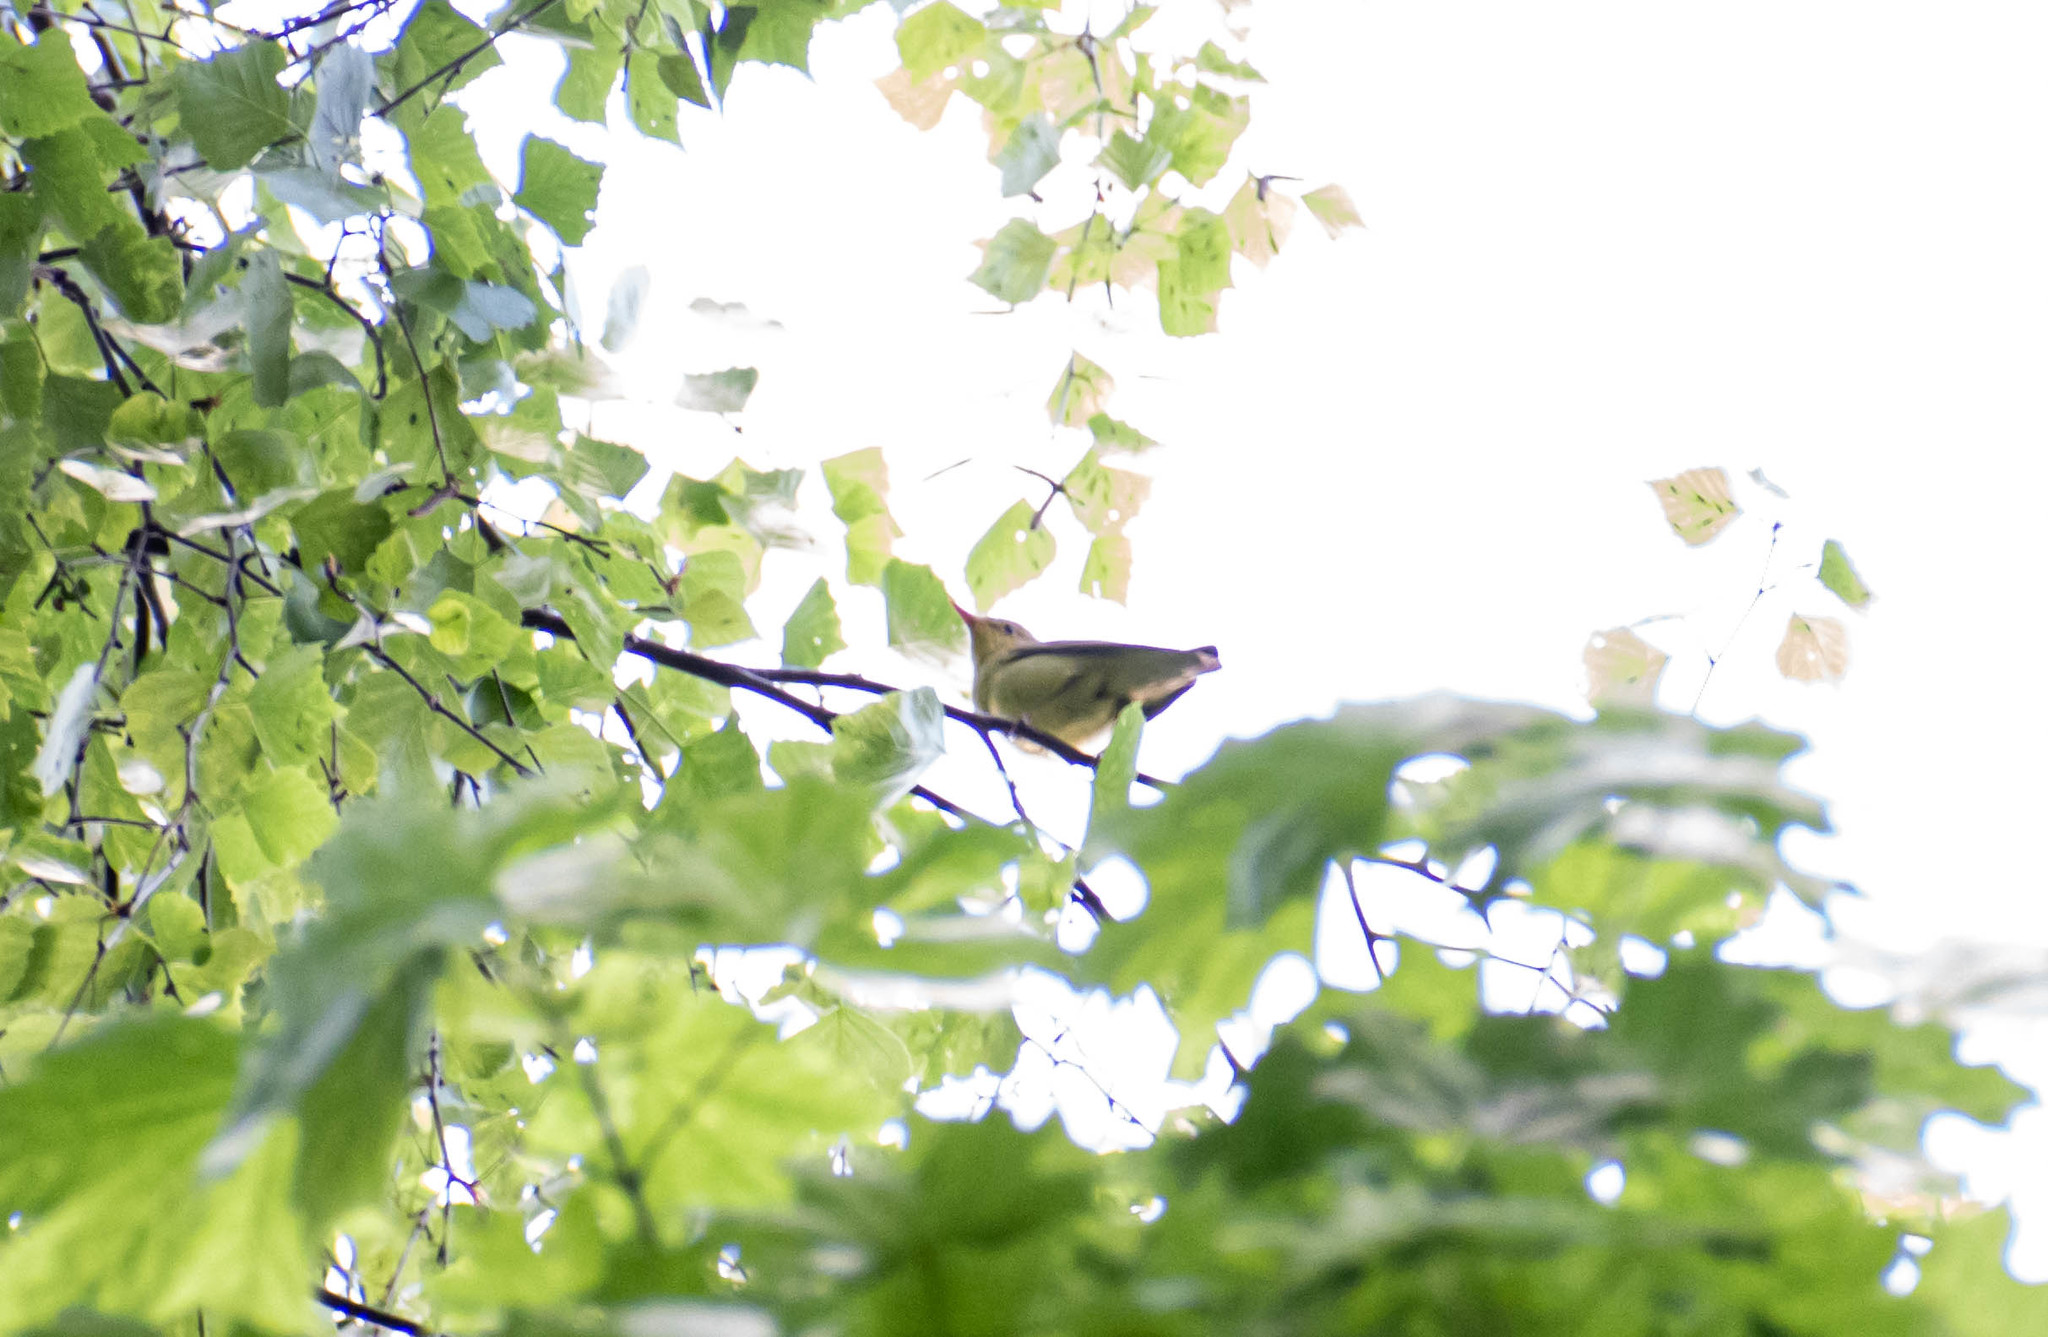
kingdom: Animalia
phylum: Chordata
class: Aves
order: Passeriformes
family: Acrocephalidae
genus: Hippolais
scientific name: Hippolais icterina
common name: Icterine warbler
